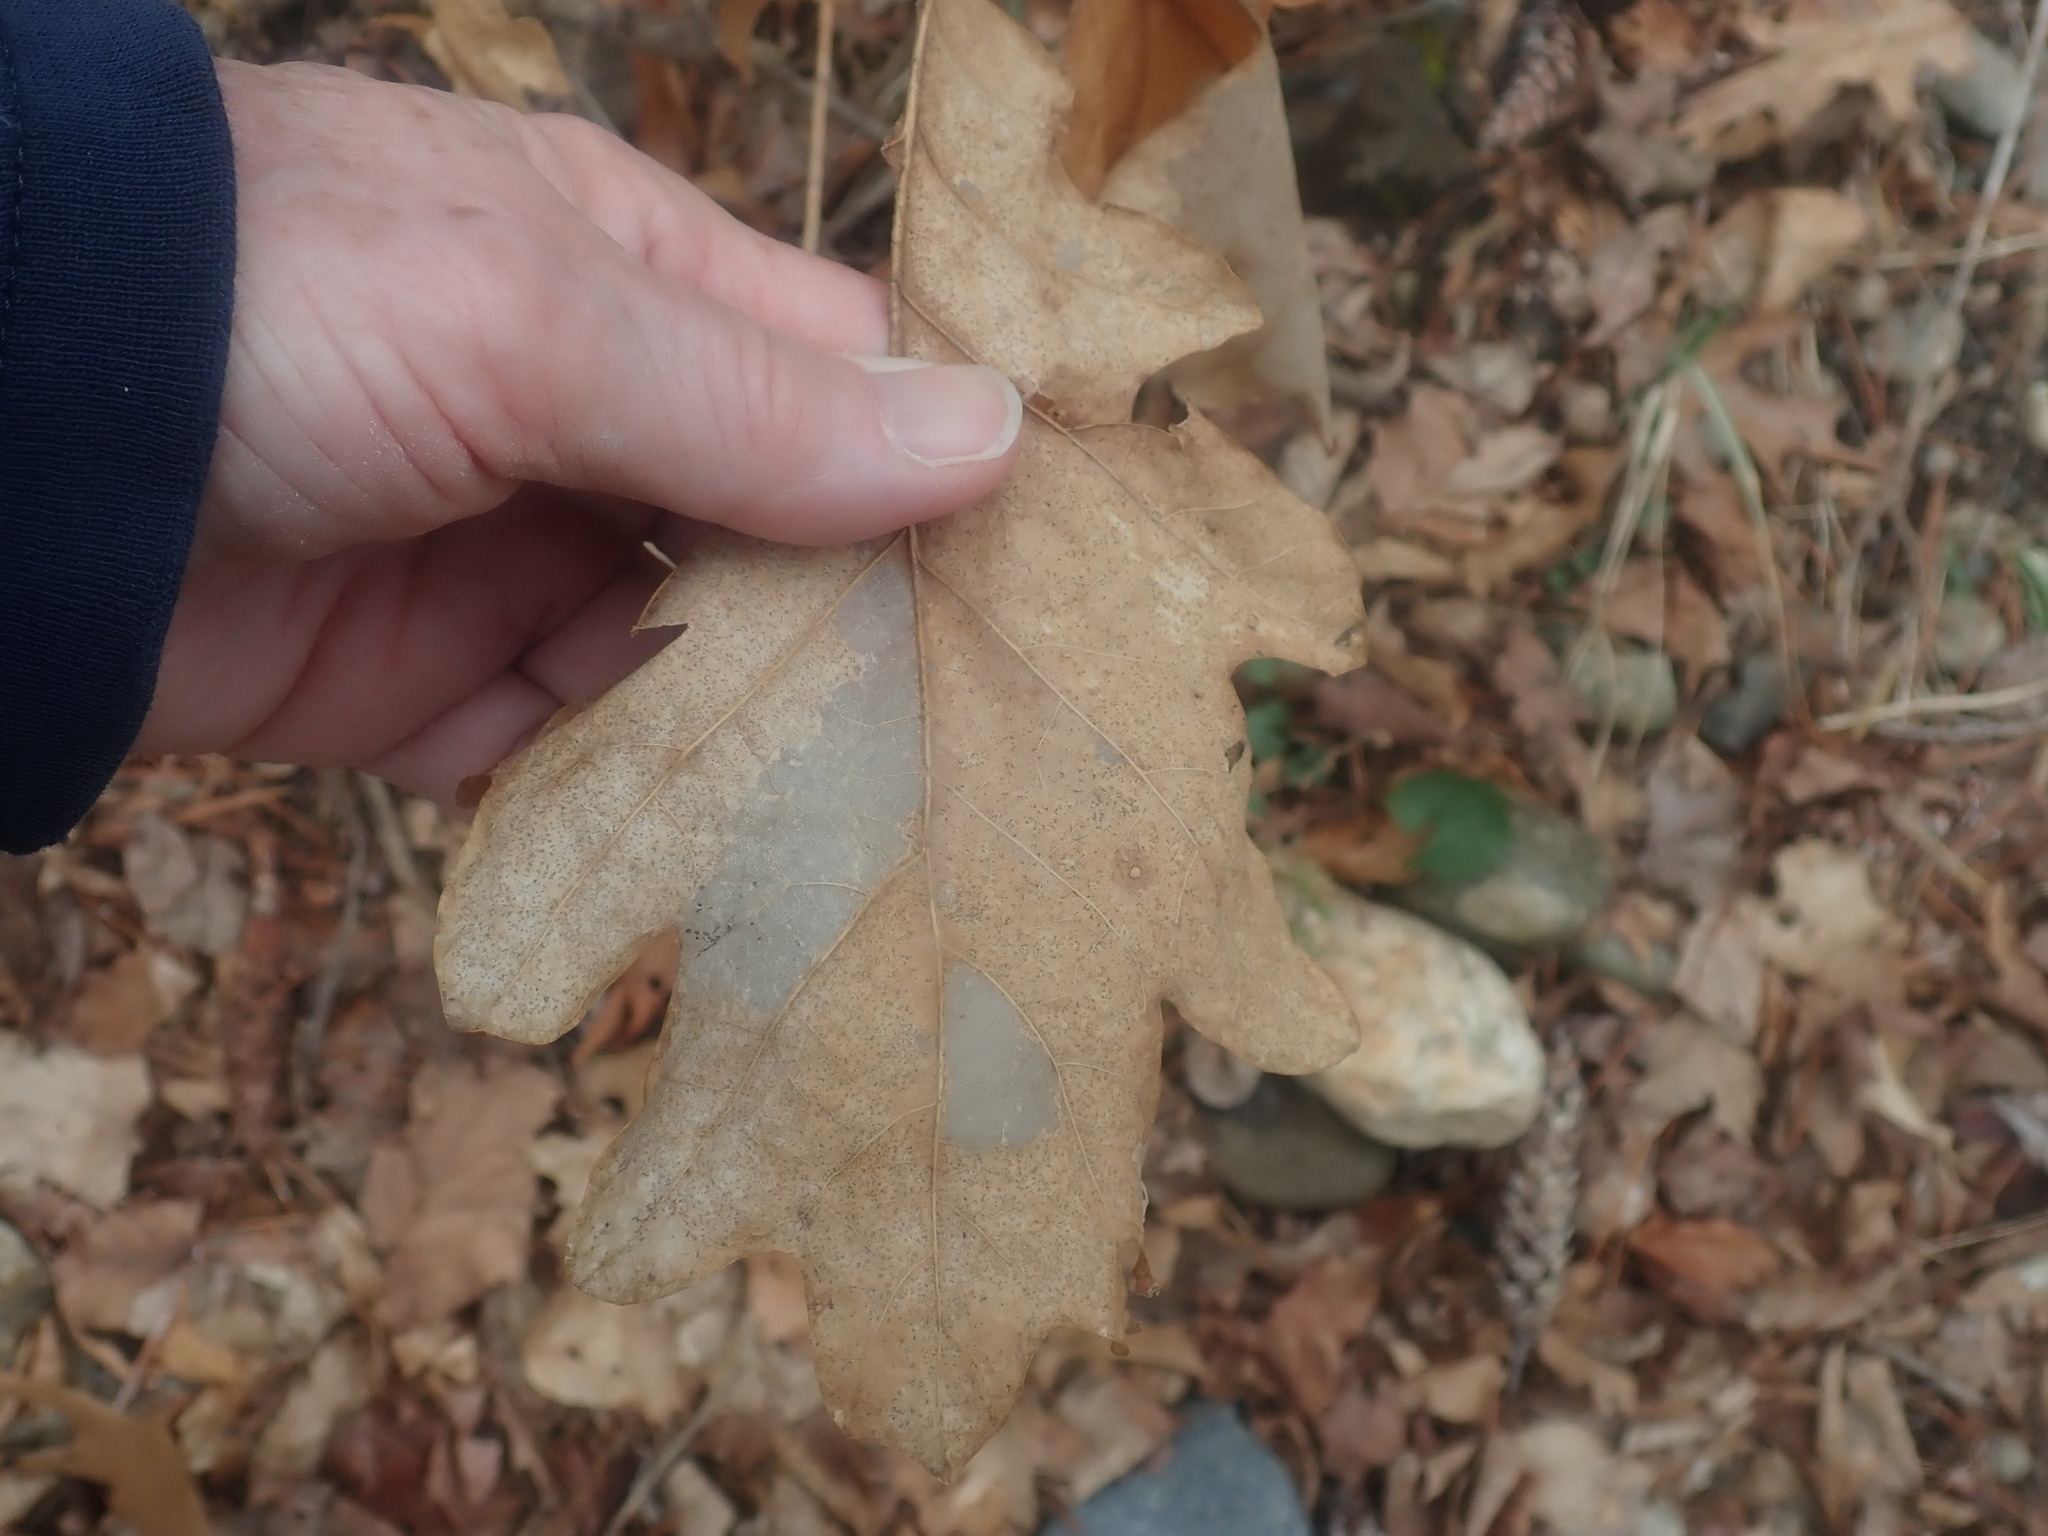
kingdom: Plantae
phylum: Tracheophyta
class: Magnoliopsida
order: Fagales
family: Fagaceae
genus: Quercus
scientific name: Quercus alba
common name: White oak
